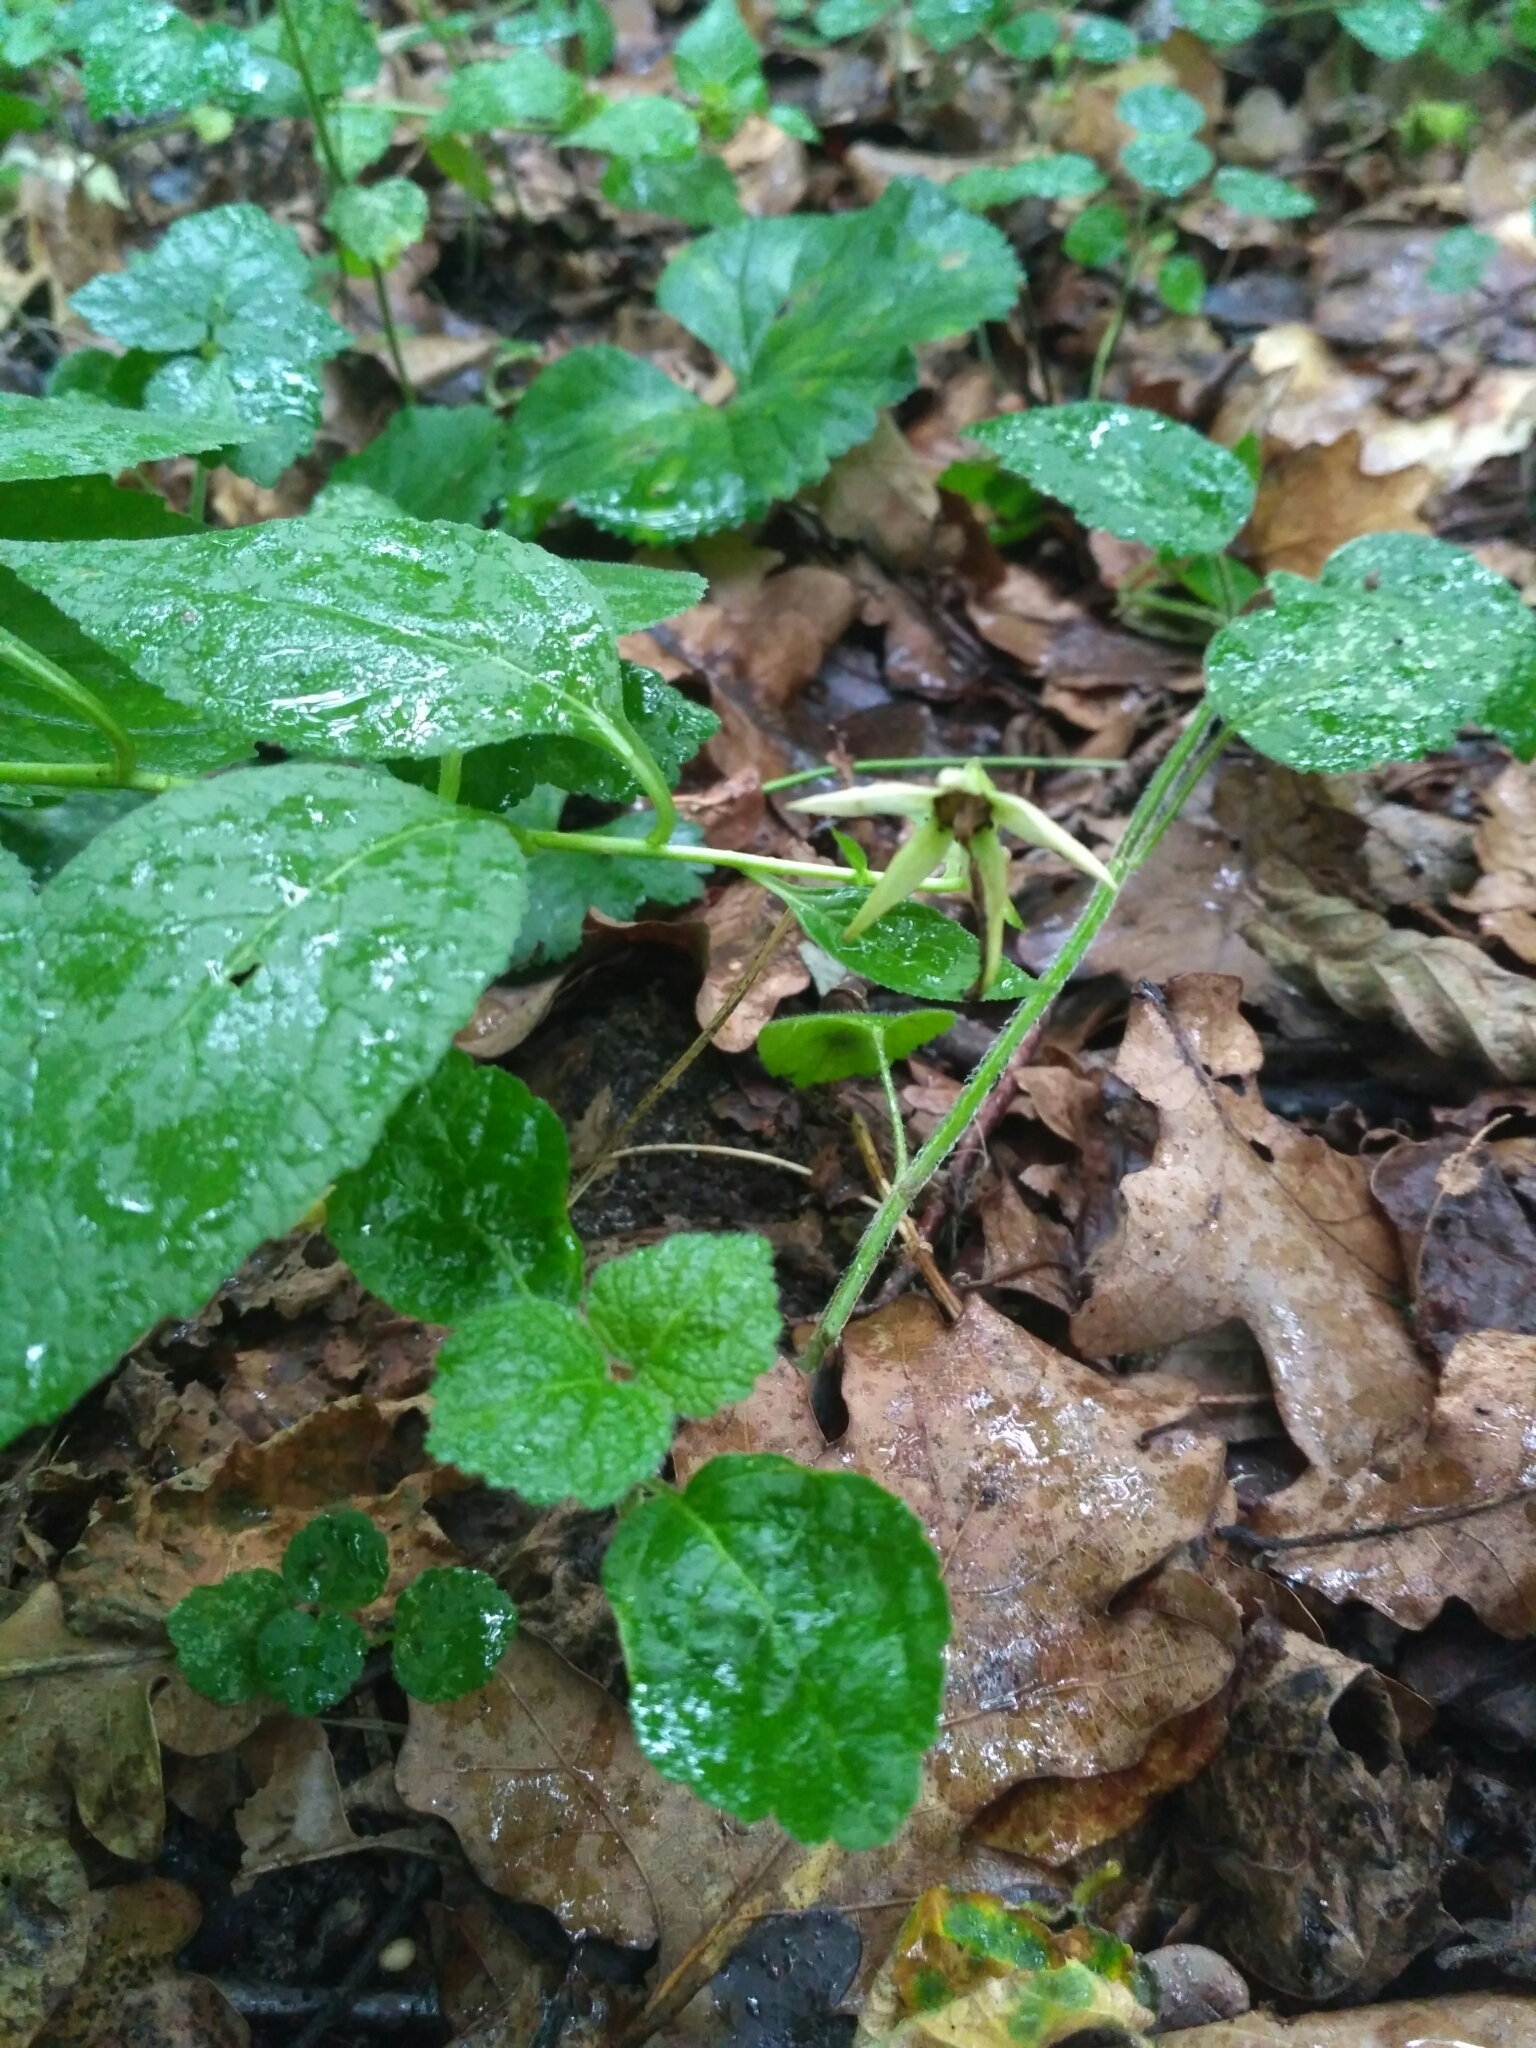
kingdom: Plantae
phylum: Tracheophyta
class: Magnoliopsida
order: Asterales
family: Campanulaceae
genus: Campanula
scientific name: Campanula latifolia
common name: Giant bellflower
